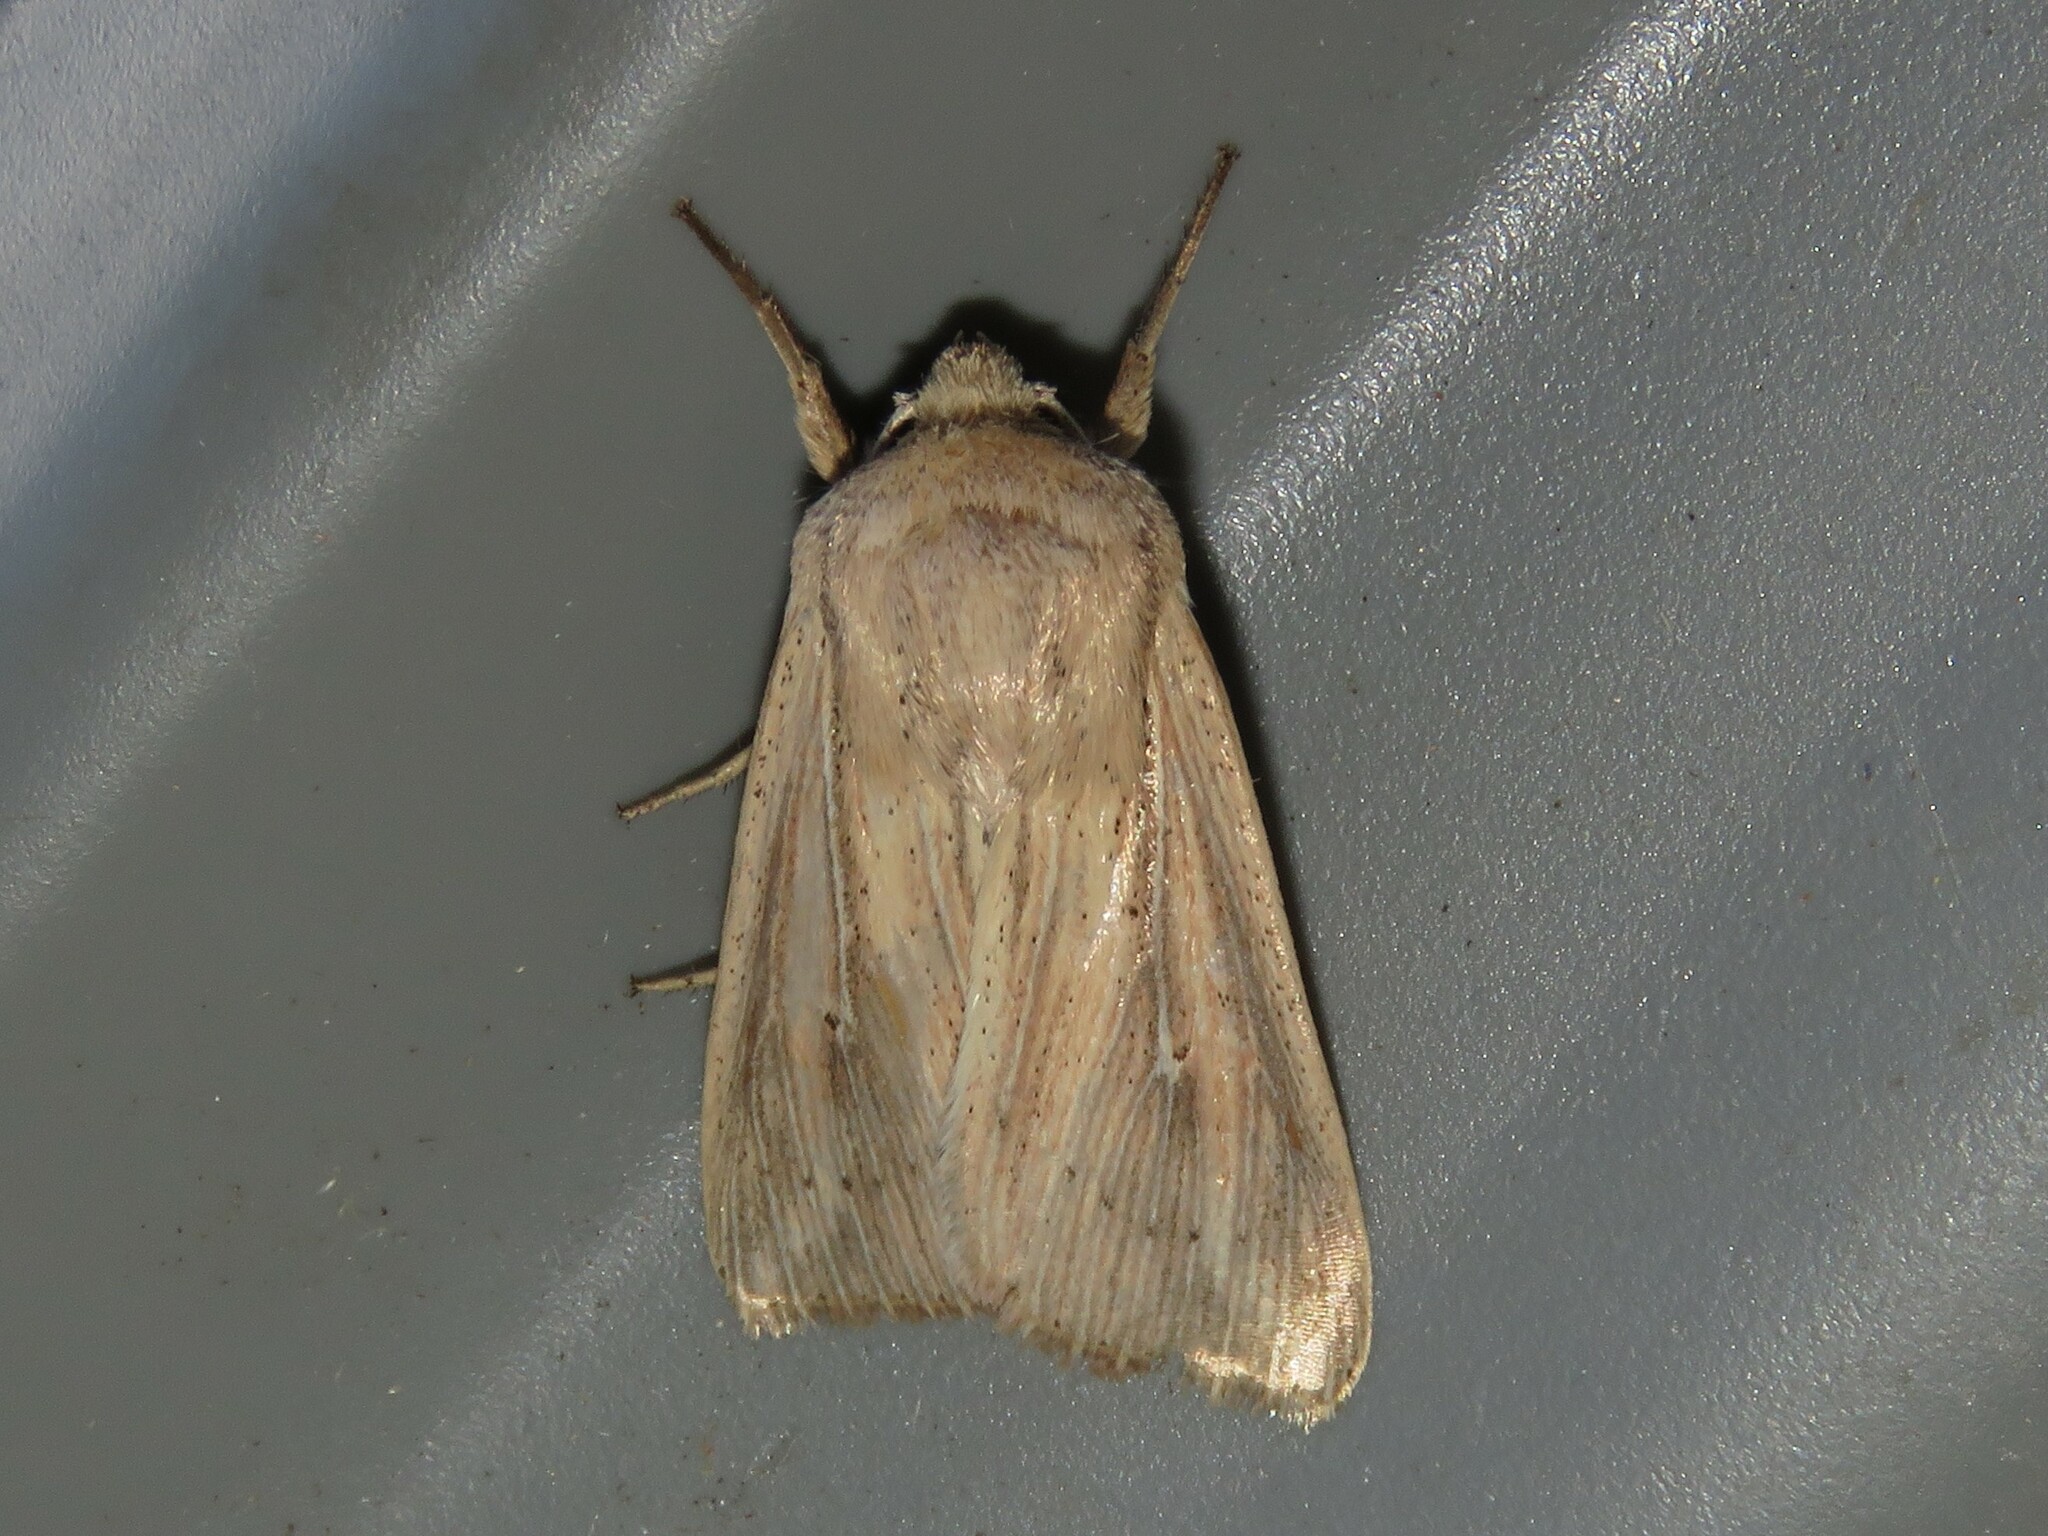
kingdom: Animalia
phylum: Arthropoda
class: Insecta
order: Lepidoptera
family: Noctuidae
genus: Leucania
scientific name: Leucania linda
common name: Linda's wainscot
